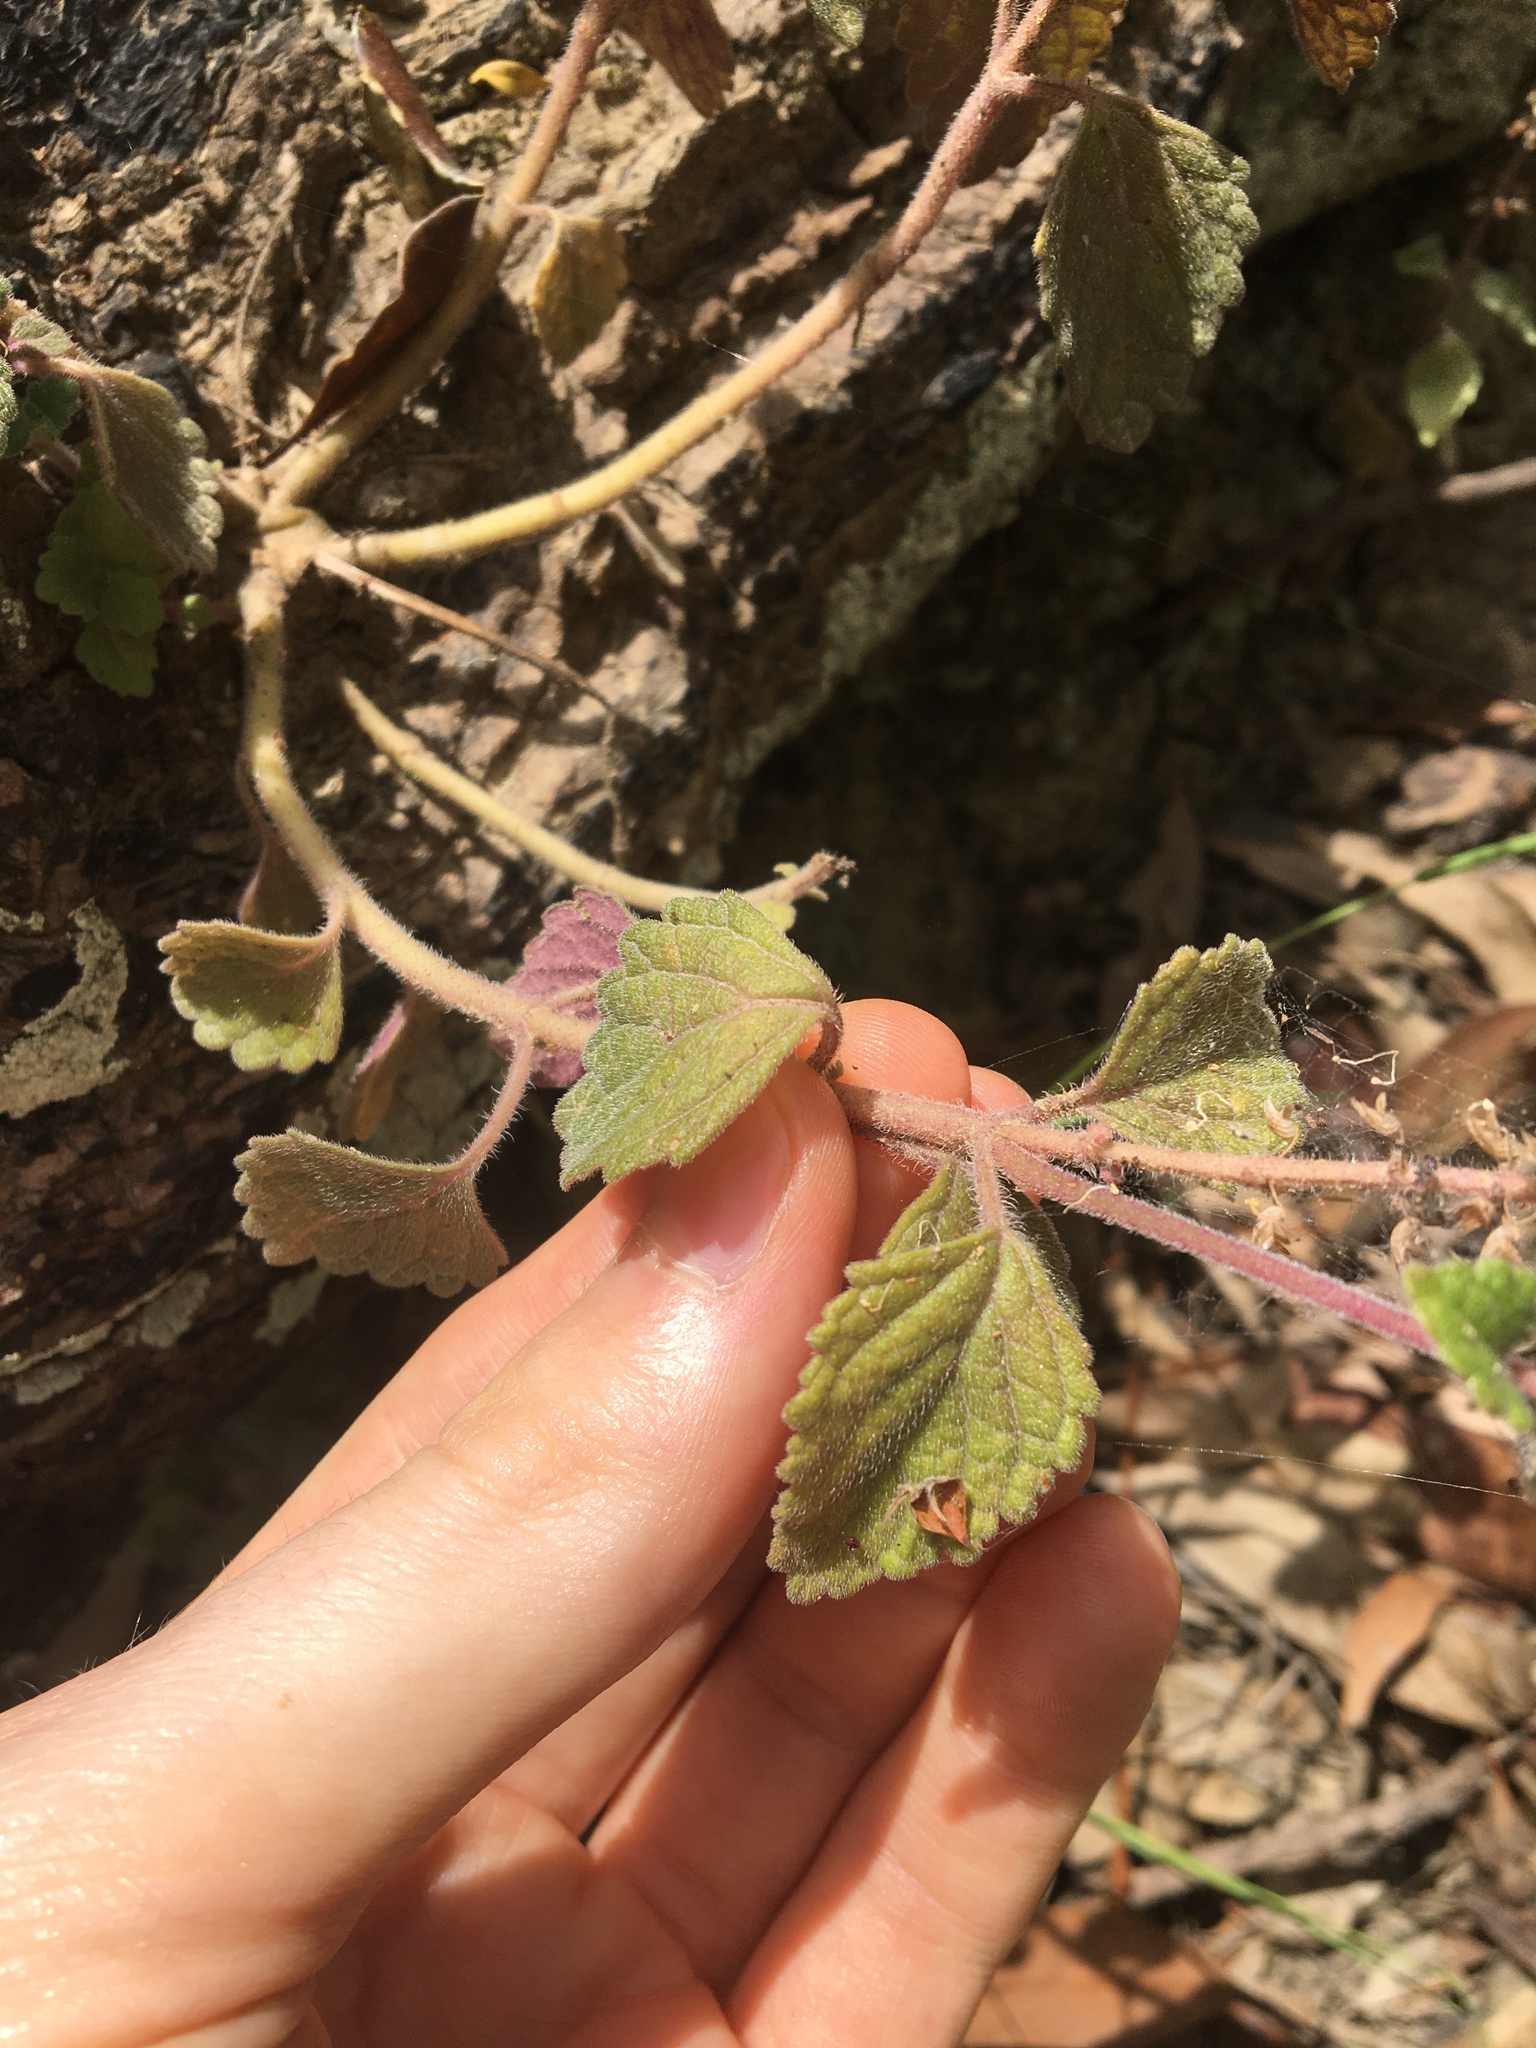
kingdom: Plantae
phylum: Tracheophyta
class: Magnoliopsida
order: Lamiales
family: Lamiaceae
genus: Coleus
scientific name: Coleus australis
